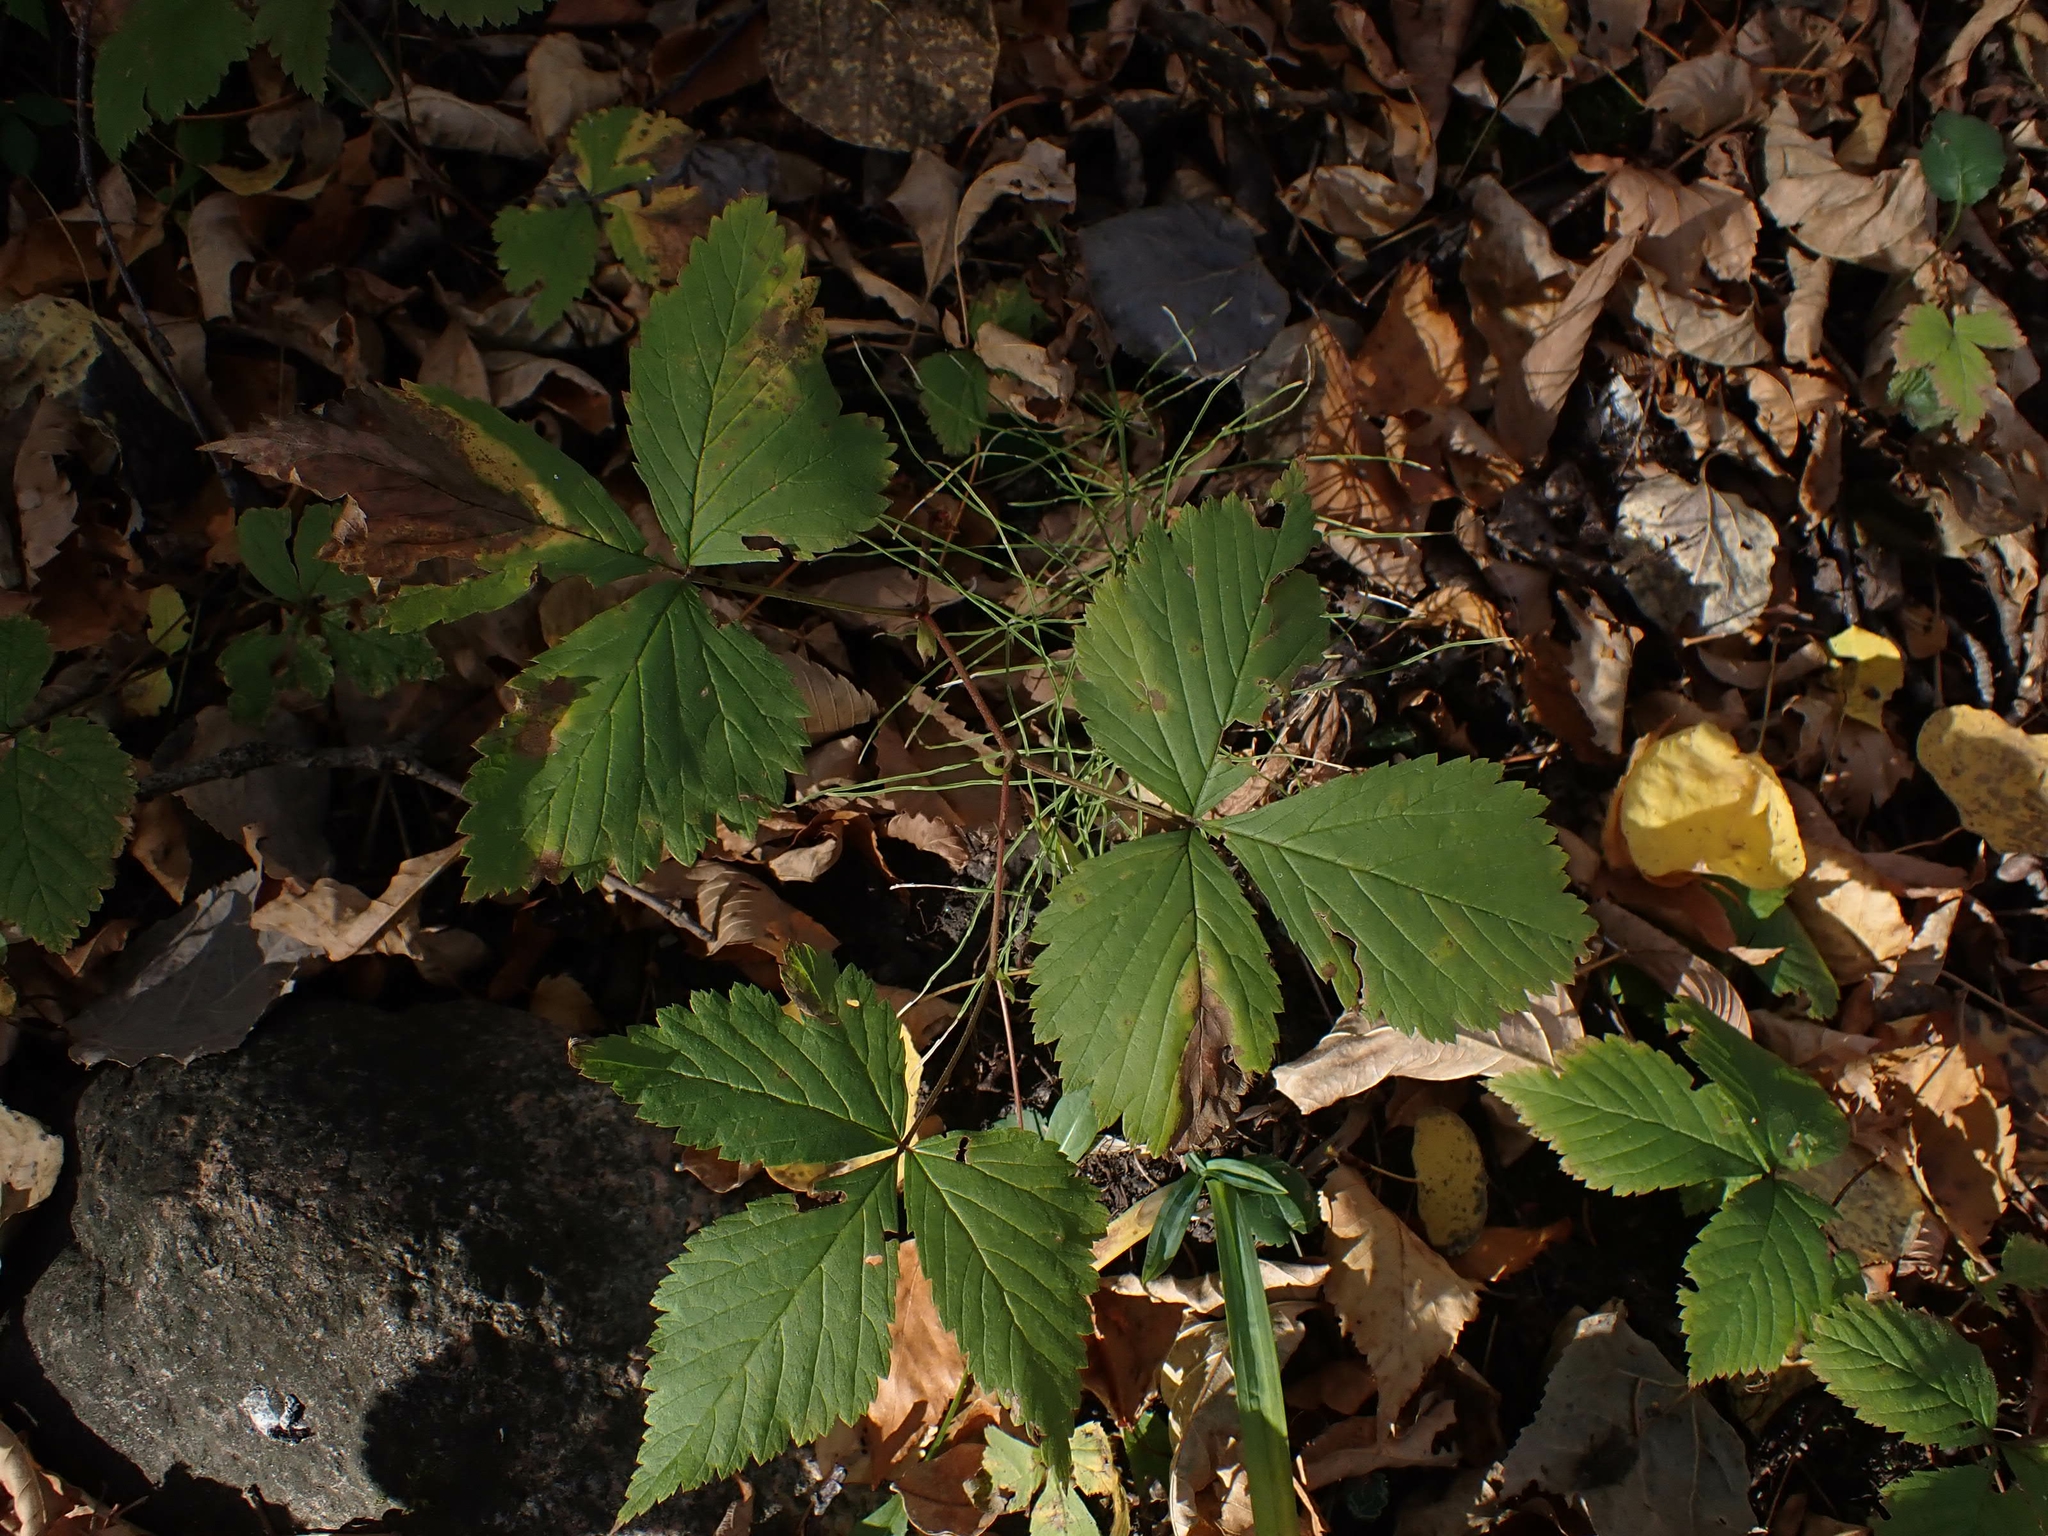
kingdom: Plantae
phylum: Tracheophyta
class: Magnoliopsida
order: Rosales
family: Rosaceae
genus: Rubus
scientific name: Rubus pubescens
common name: Dwarf raspberry
